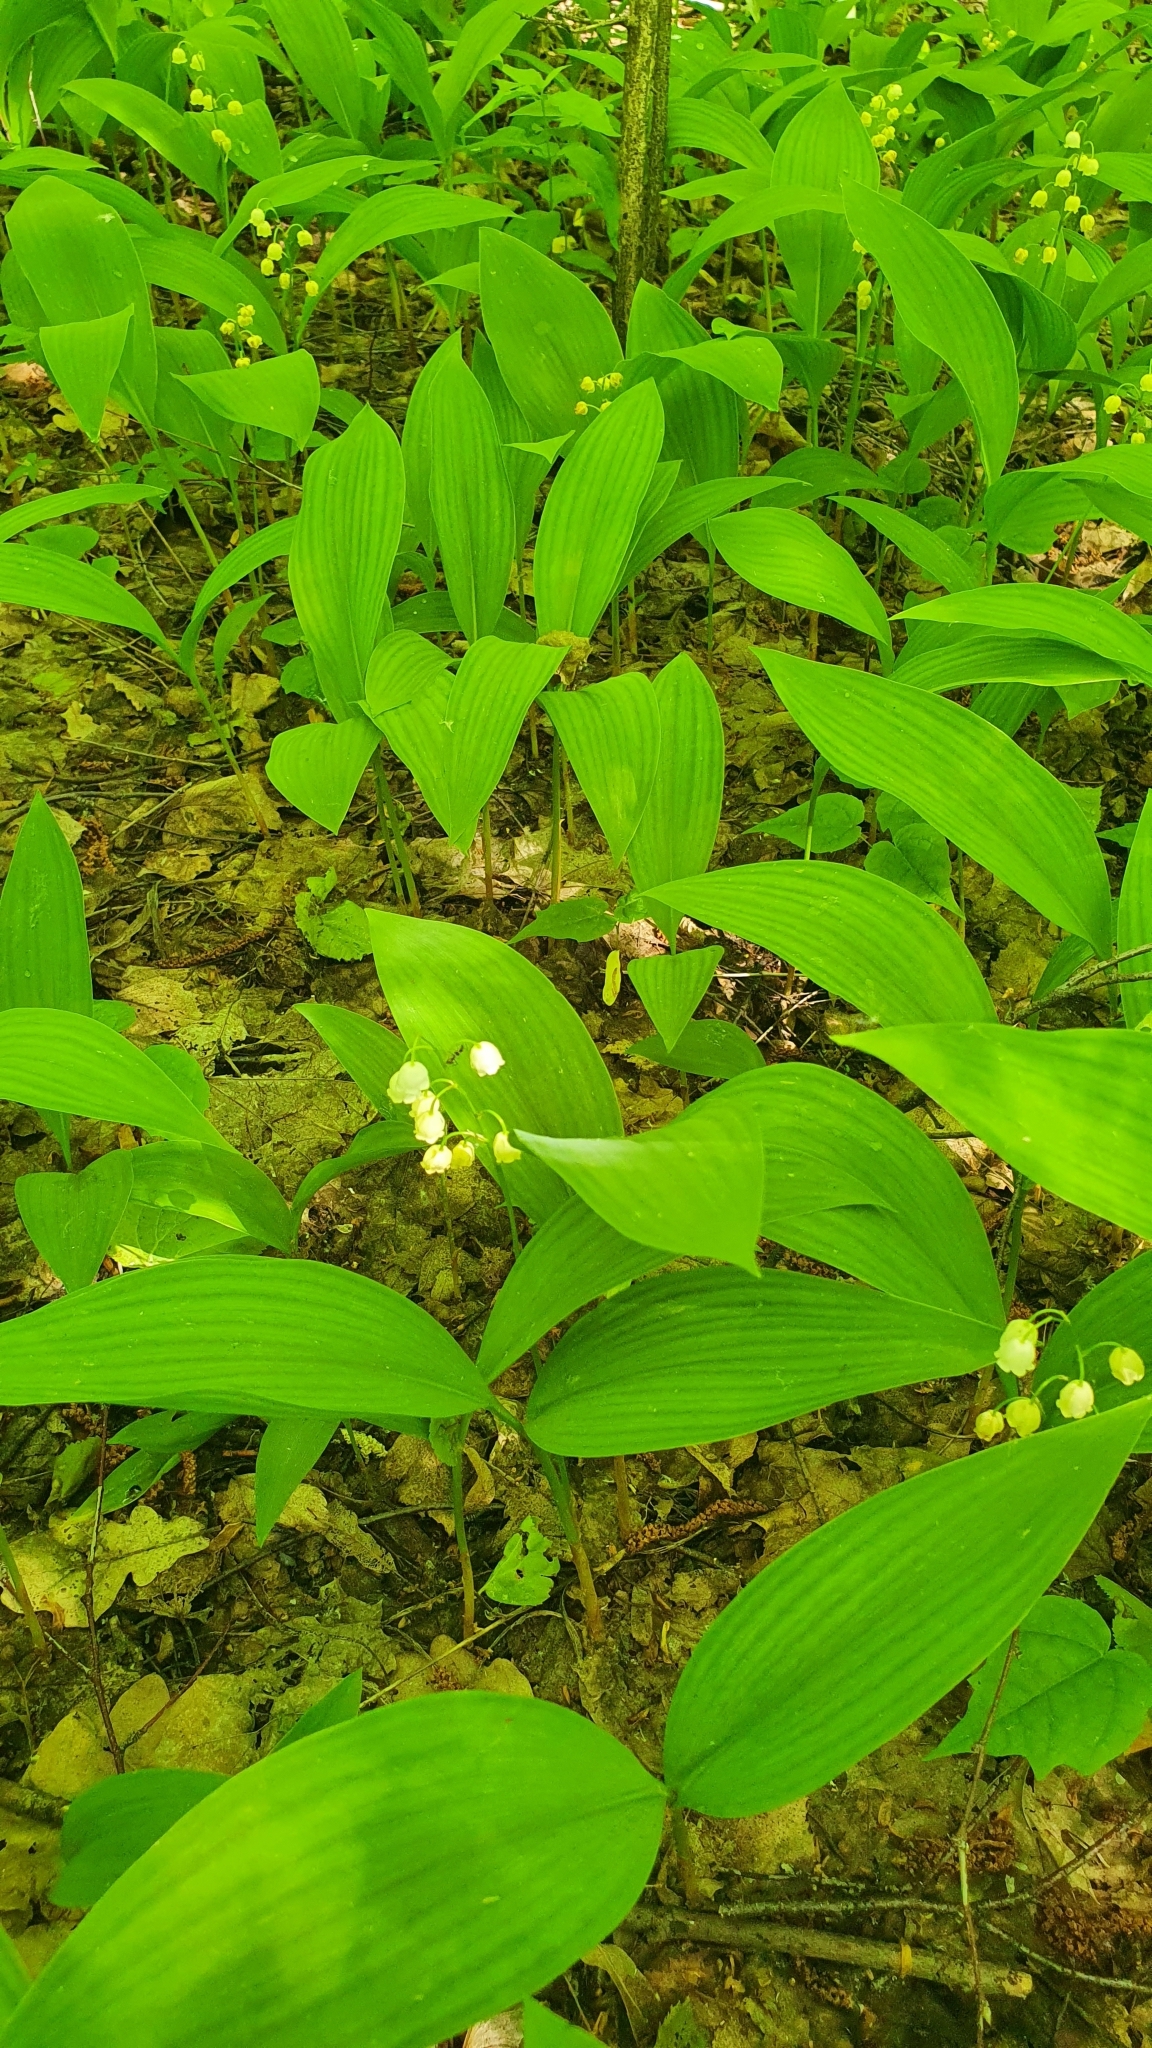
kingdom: Plantae
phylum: Tracheophyta
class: Liliopsida
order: Asparagales
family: Asparagaceae
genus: Convallaria
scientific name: Convallaria majalis
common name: Lily-of-the-valley
